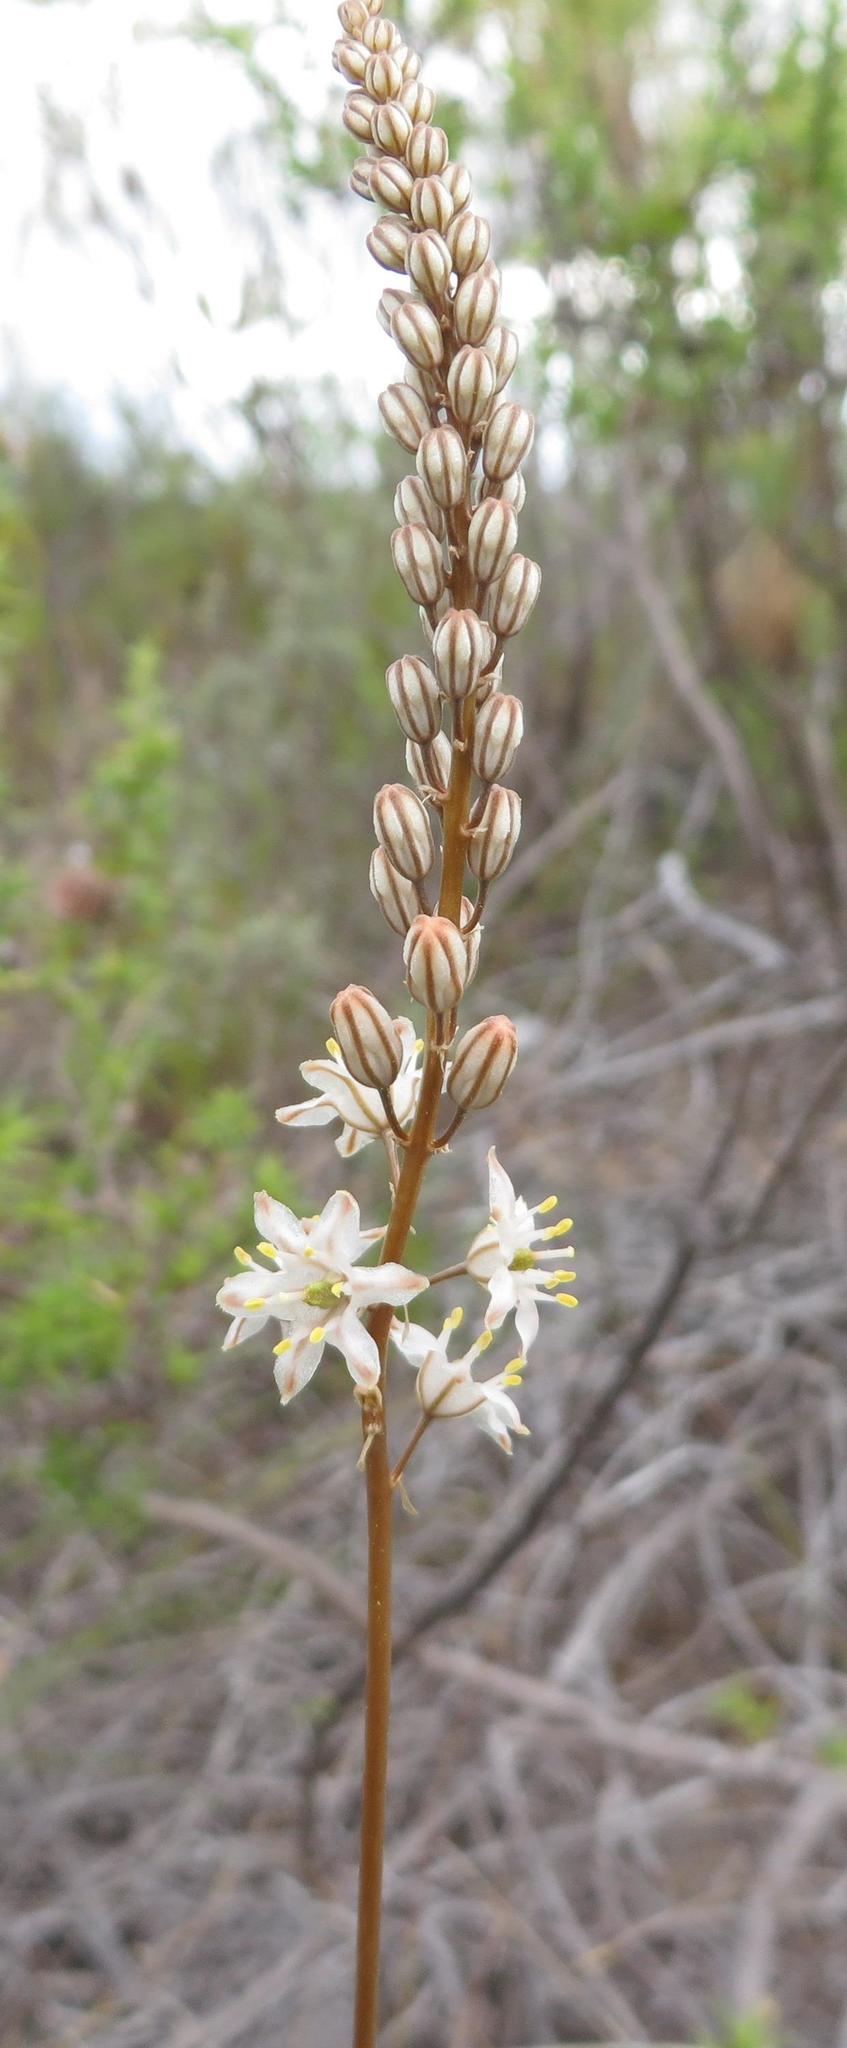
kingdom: Plantae
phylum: Tracheophyta
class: Liliopsida
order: Asparagales
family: Asparagaceae
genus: Drimia
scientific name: Drimia salteri
